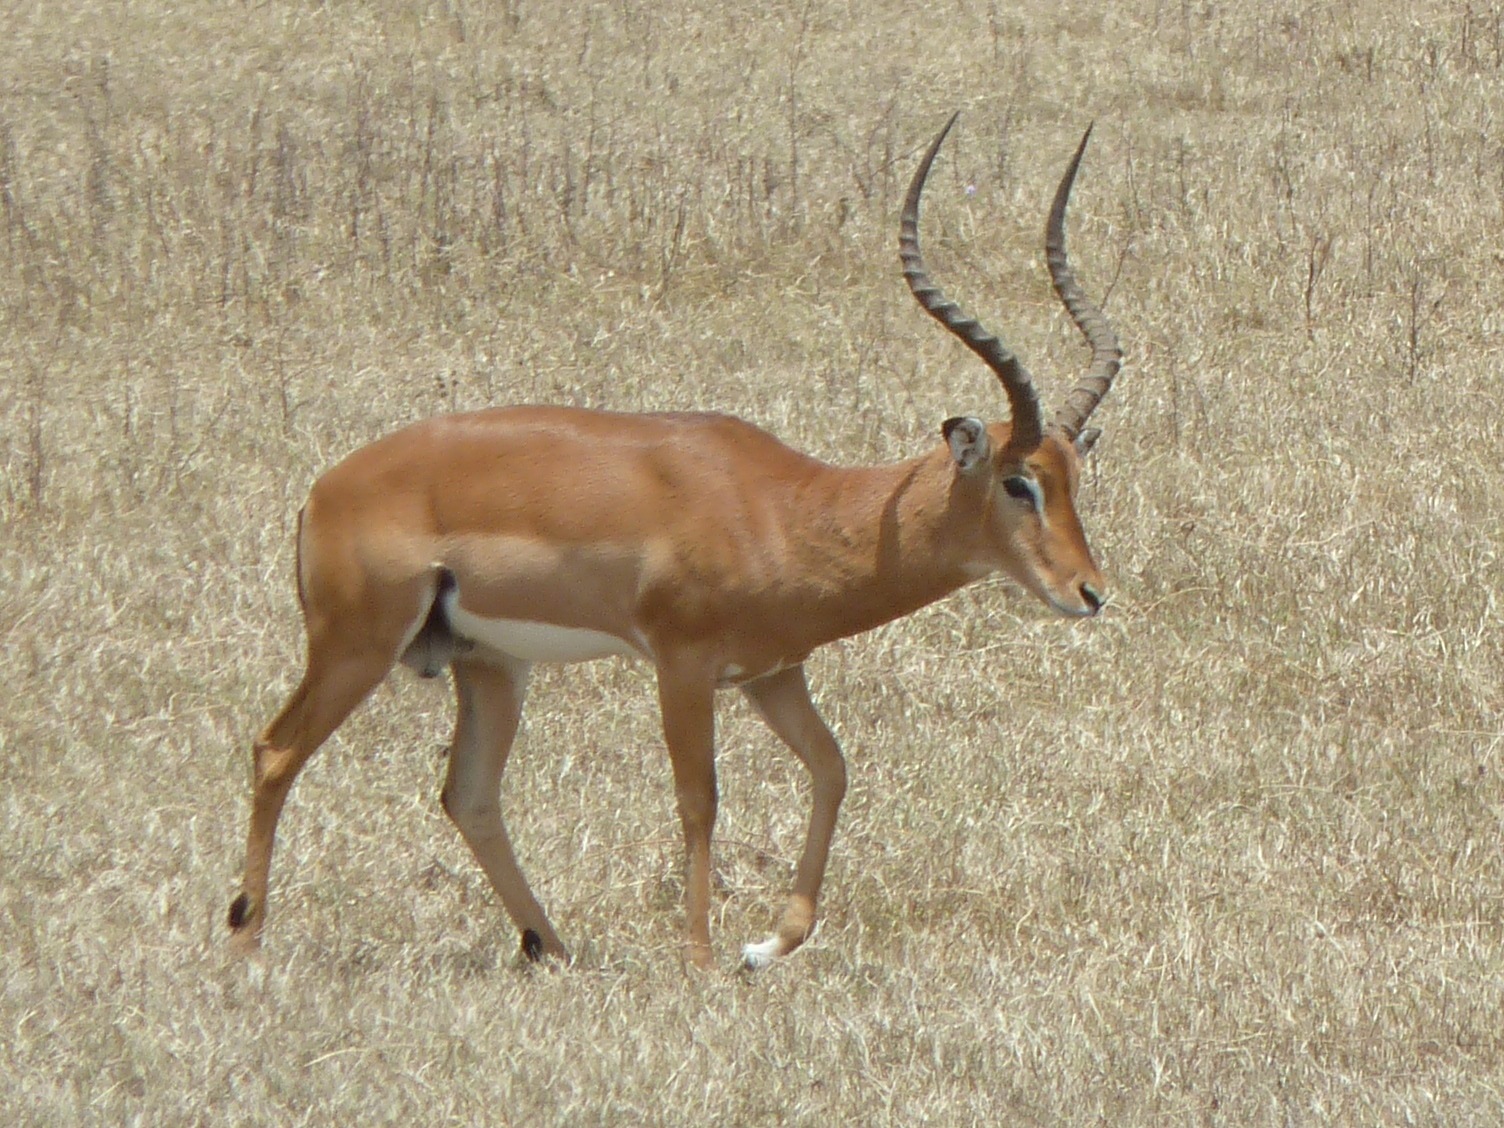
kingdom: Animalia
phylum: Chordata
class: Mammalia
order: Artiodactyla
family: Bovidae
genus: Aepyceros
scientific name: Aepyceros melampus
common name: Impala
